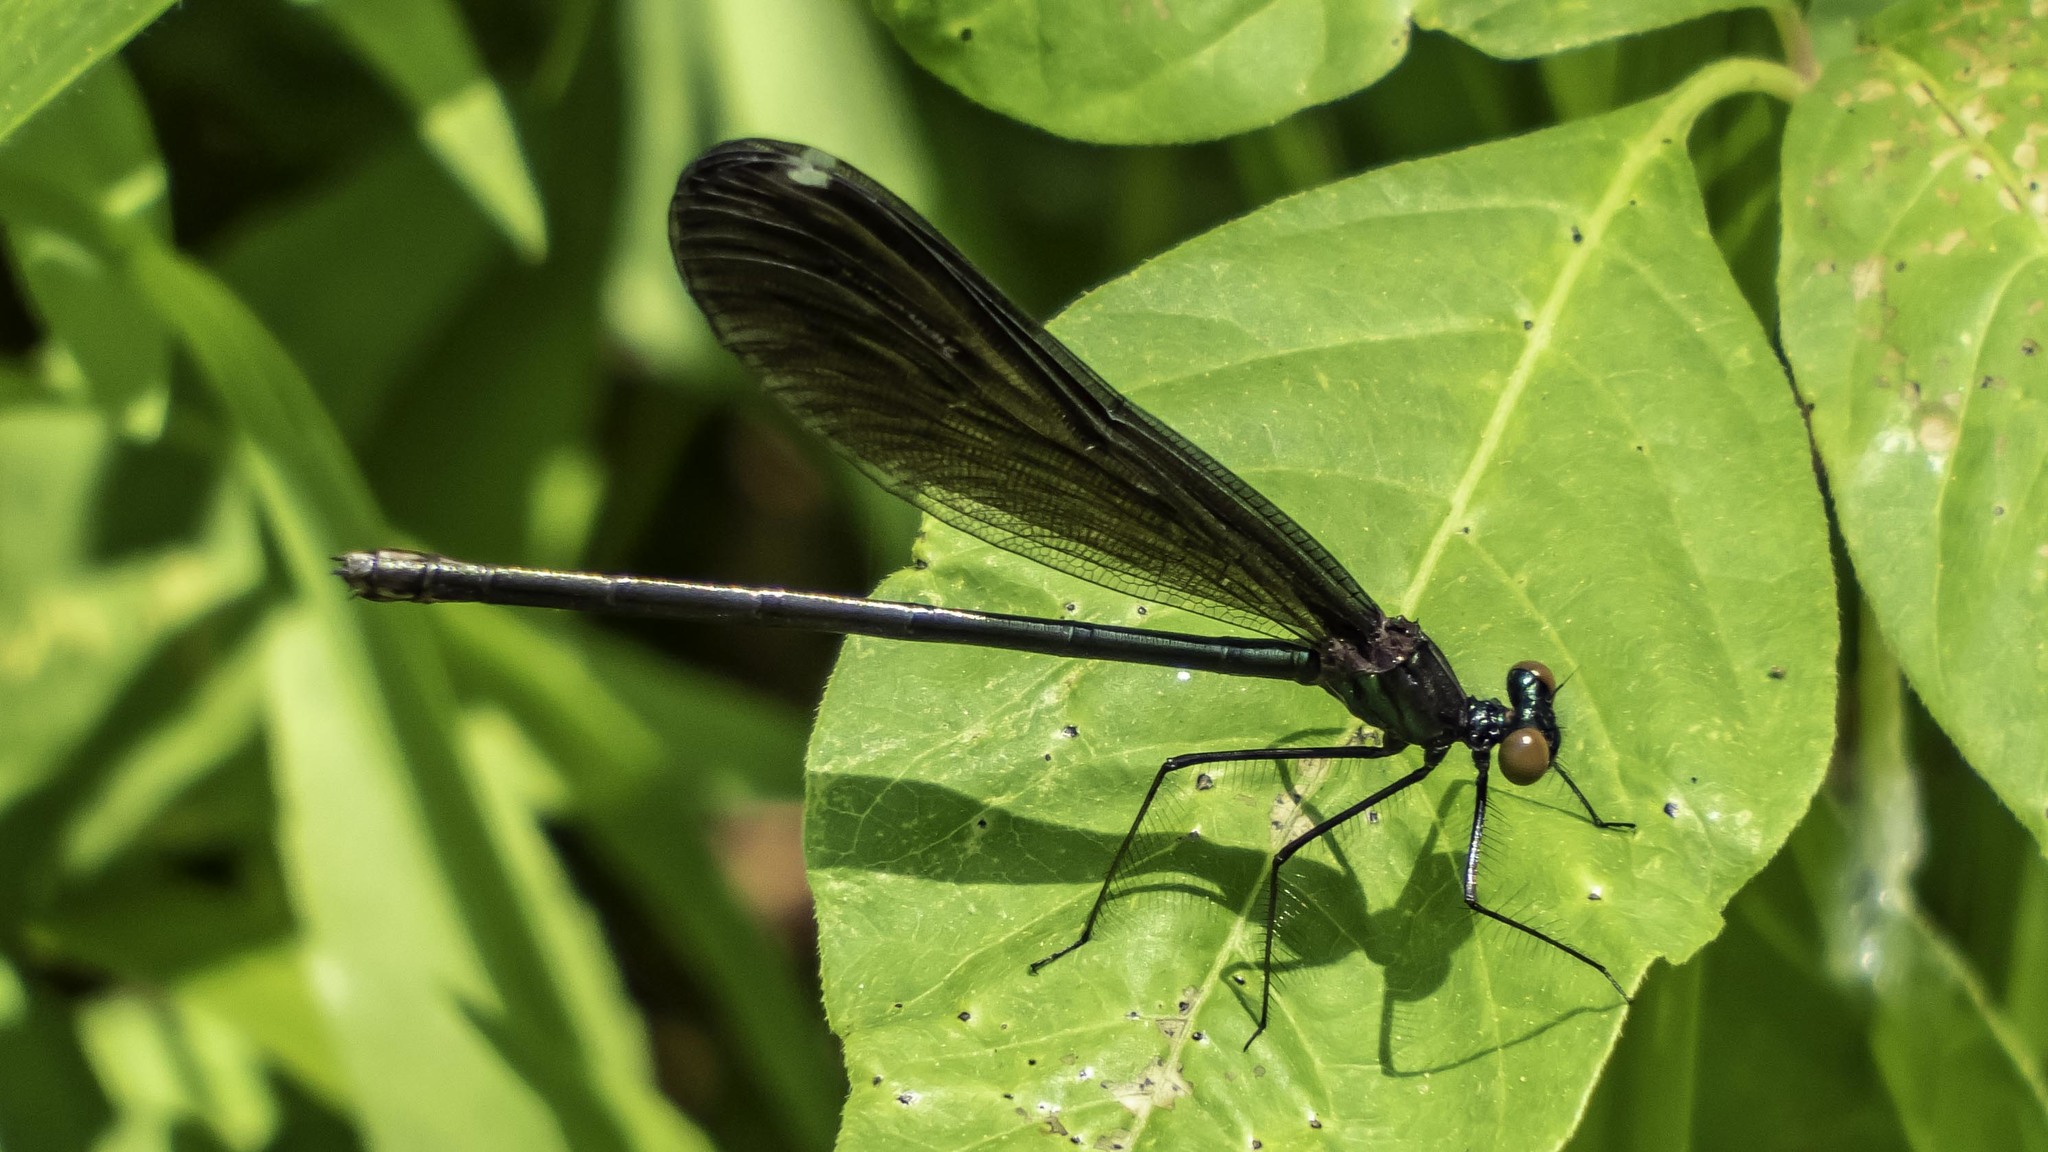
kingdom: Animalia
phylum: Arthropoda
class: Insecta
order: Odonata
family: Calopterygidae
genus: Calopteryx
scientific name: Calopteryx maculata
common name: Ebony jewelwing
